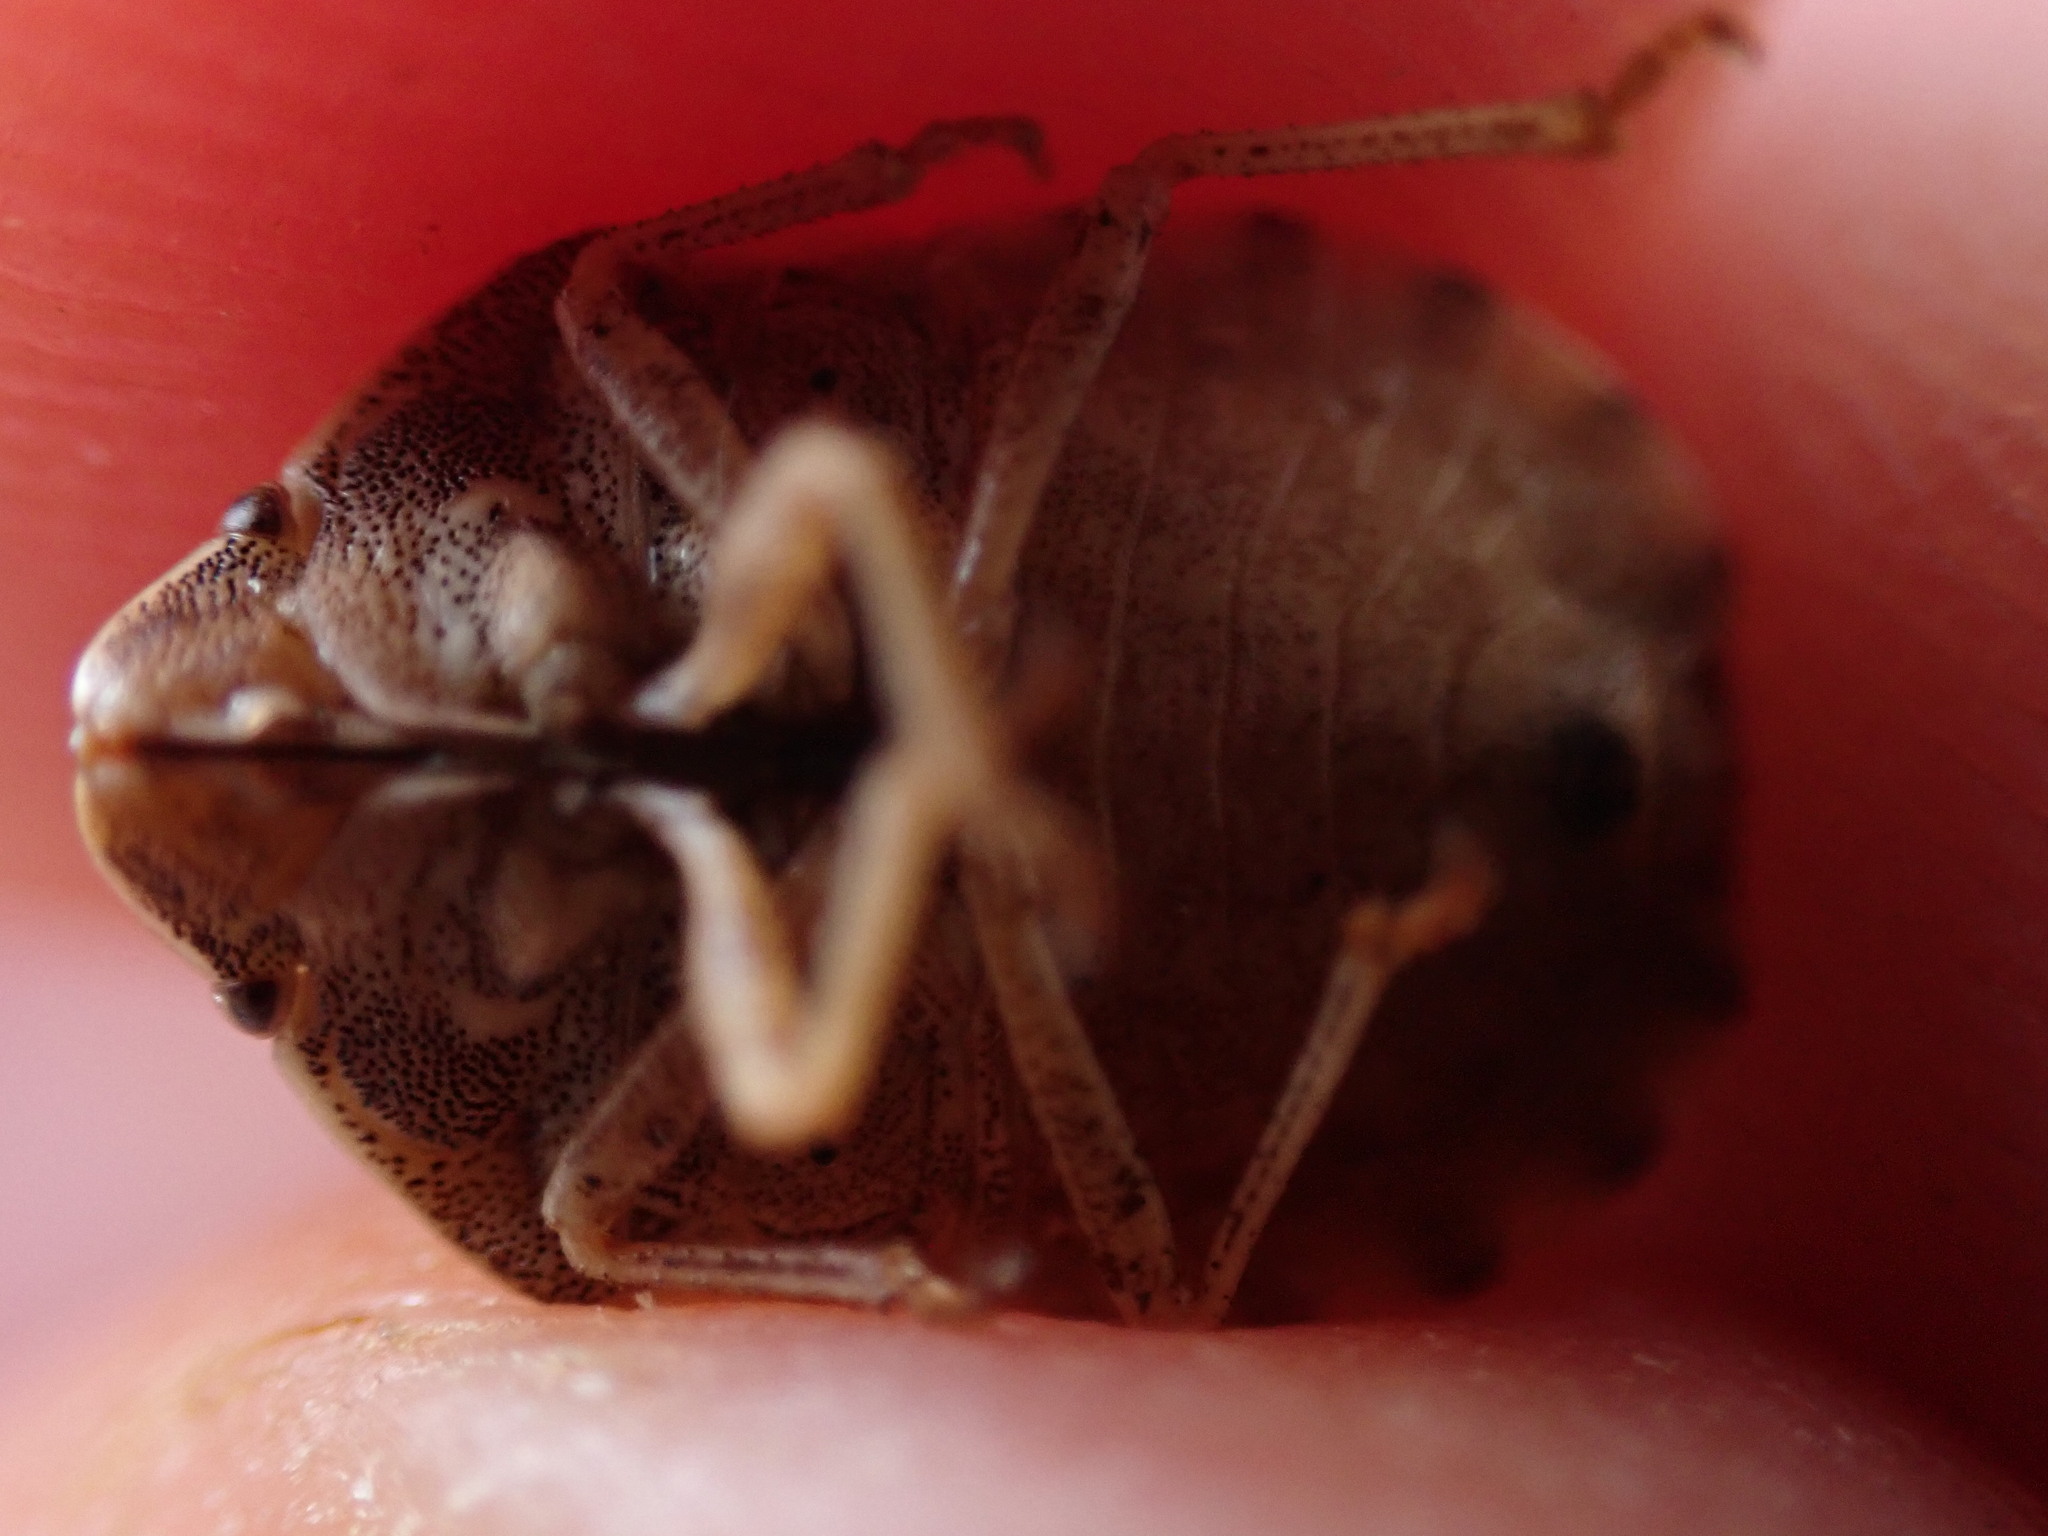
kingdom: Animalia
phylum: Arthropoda
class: Insecta
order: Hemiptera
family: Scutelleridae
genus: Eurygaster
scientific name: Eurygaster maura
